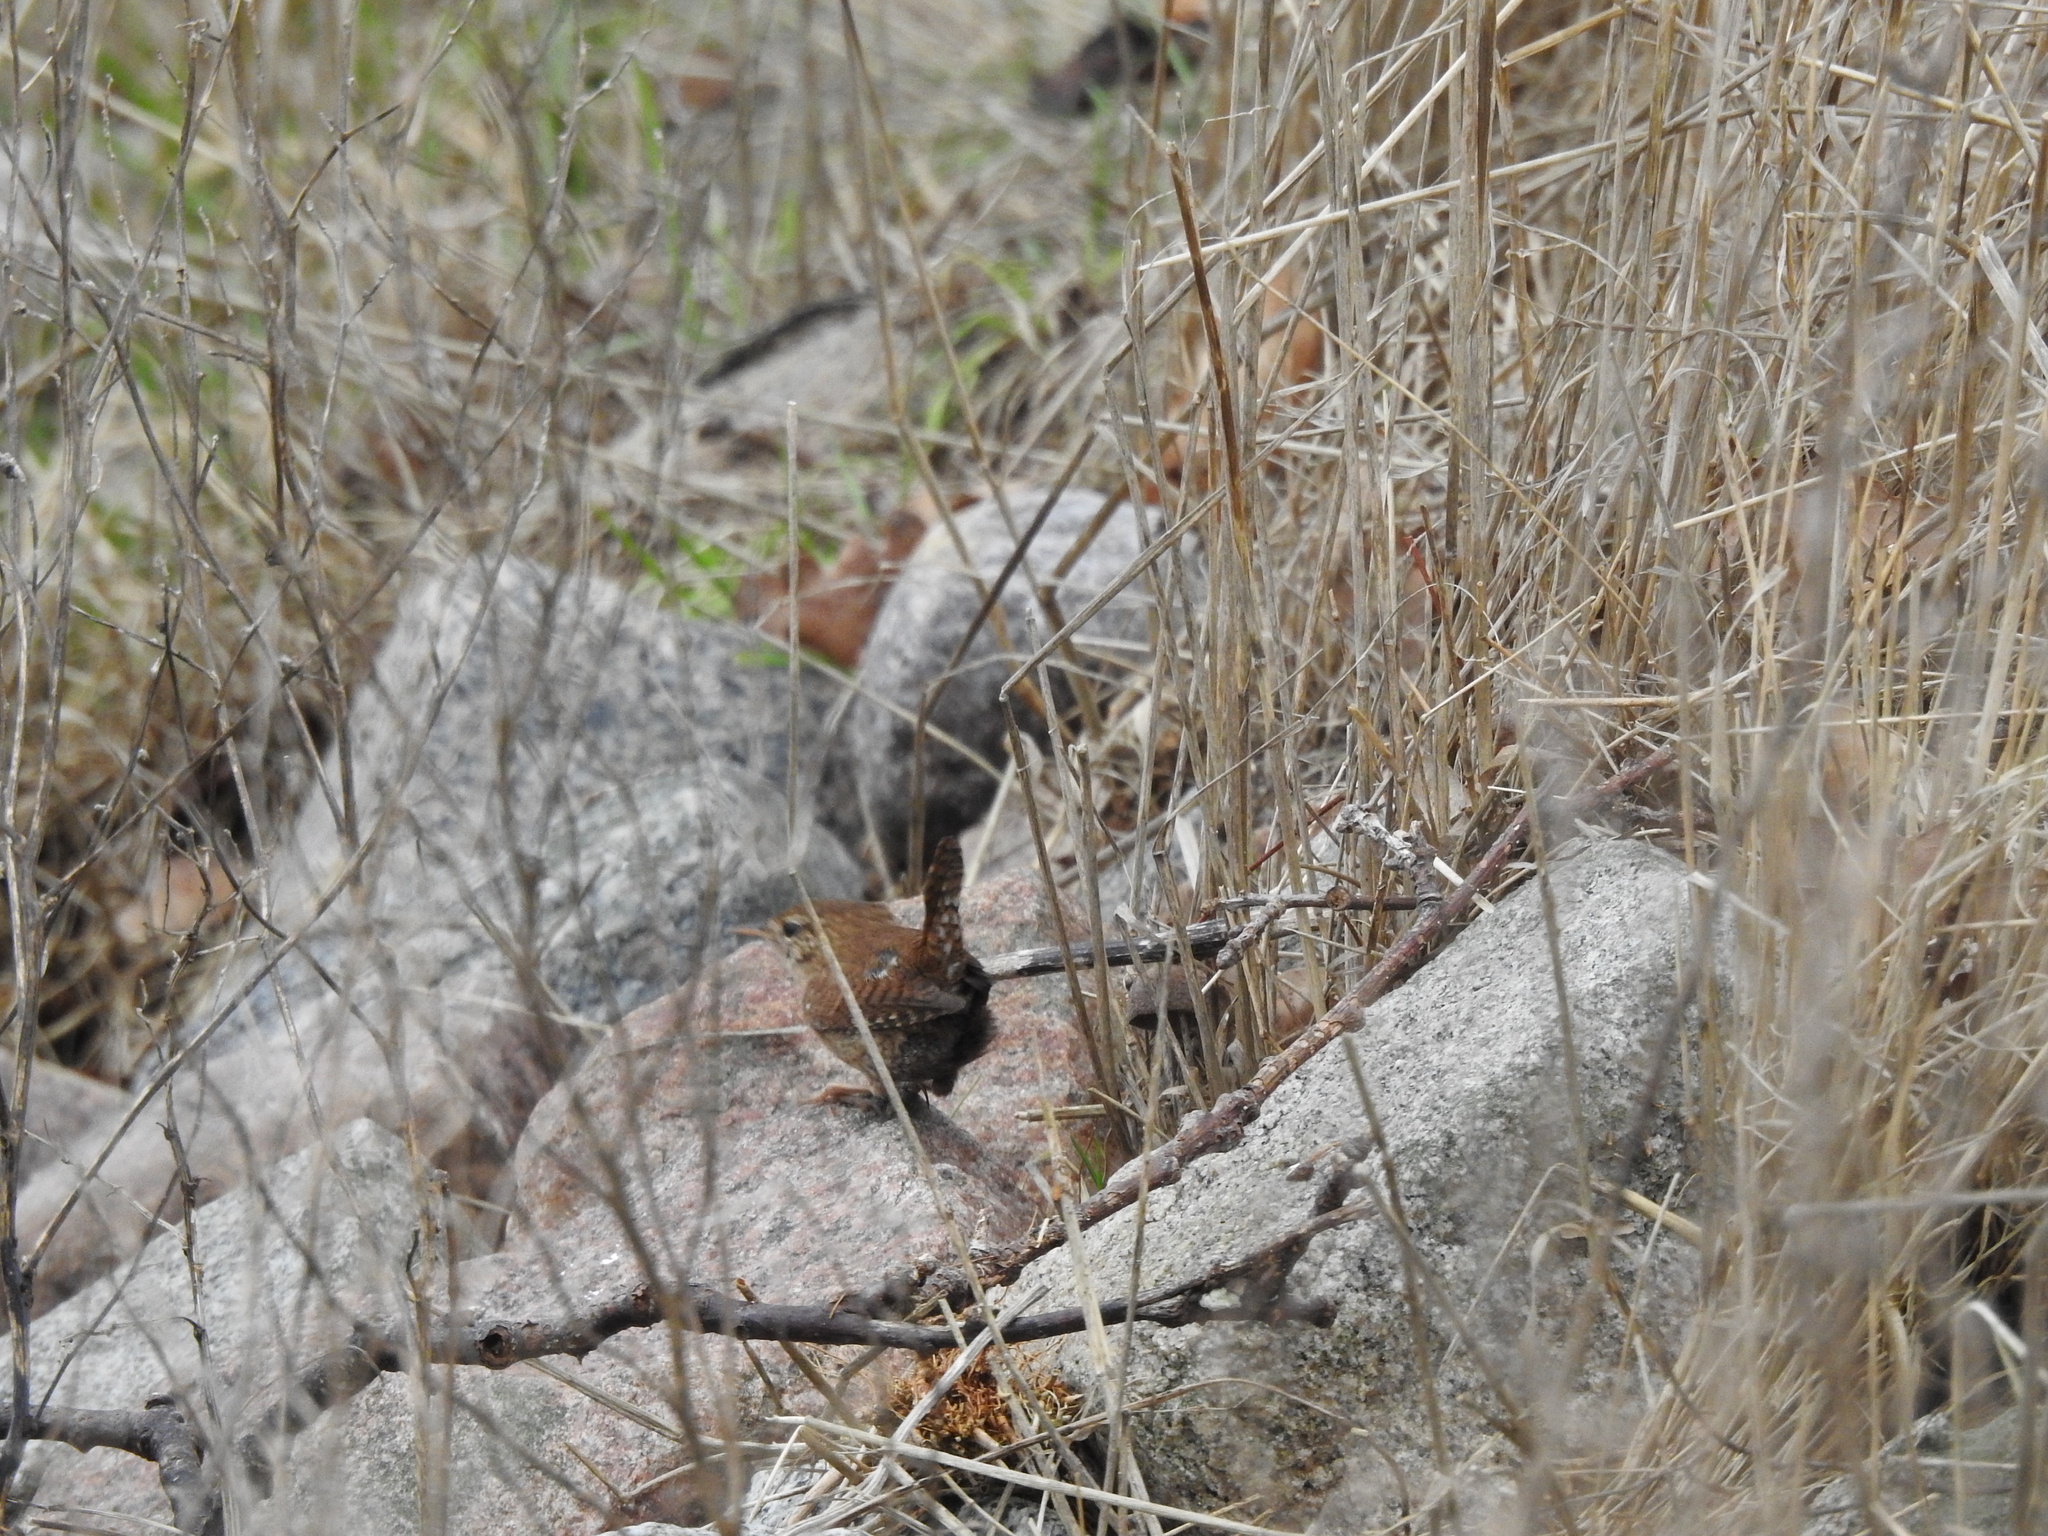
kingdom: Animalia
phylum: Chordata
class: Aves
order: Passeriformes
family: Troglodytidae
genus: Troglodytes
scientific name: Troglodytes troglodytes
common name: Eurasian wren
